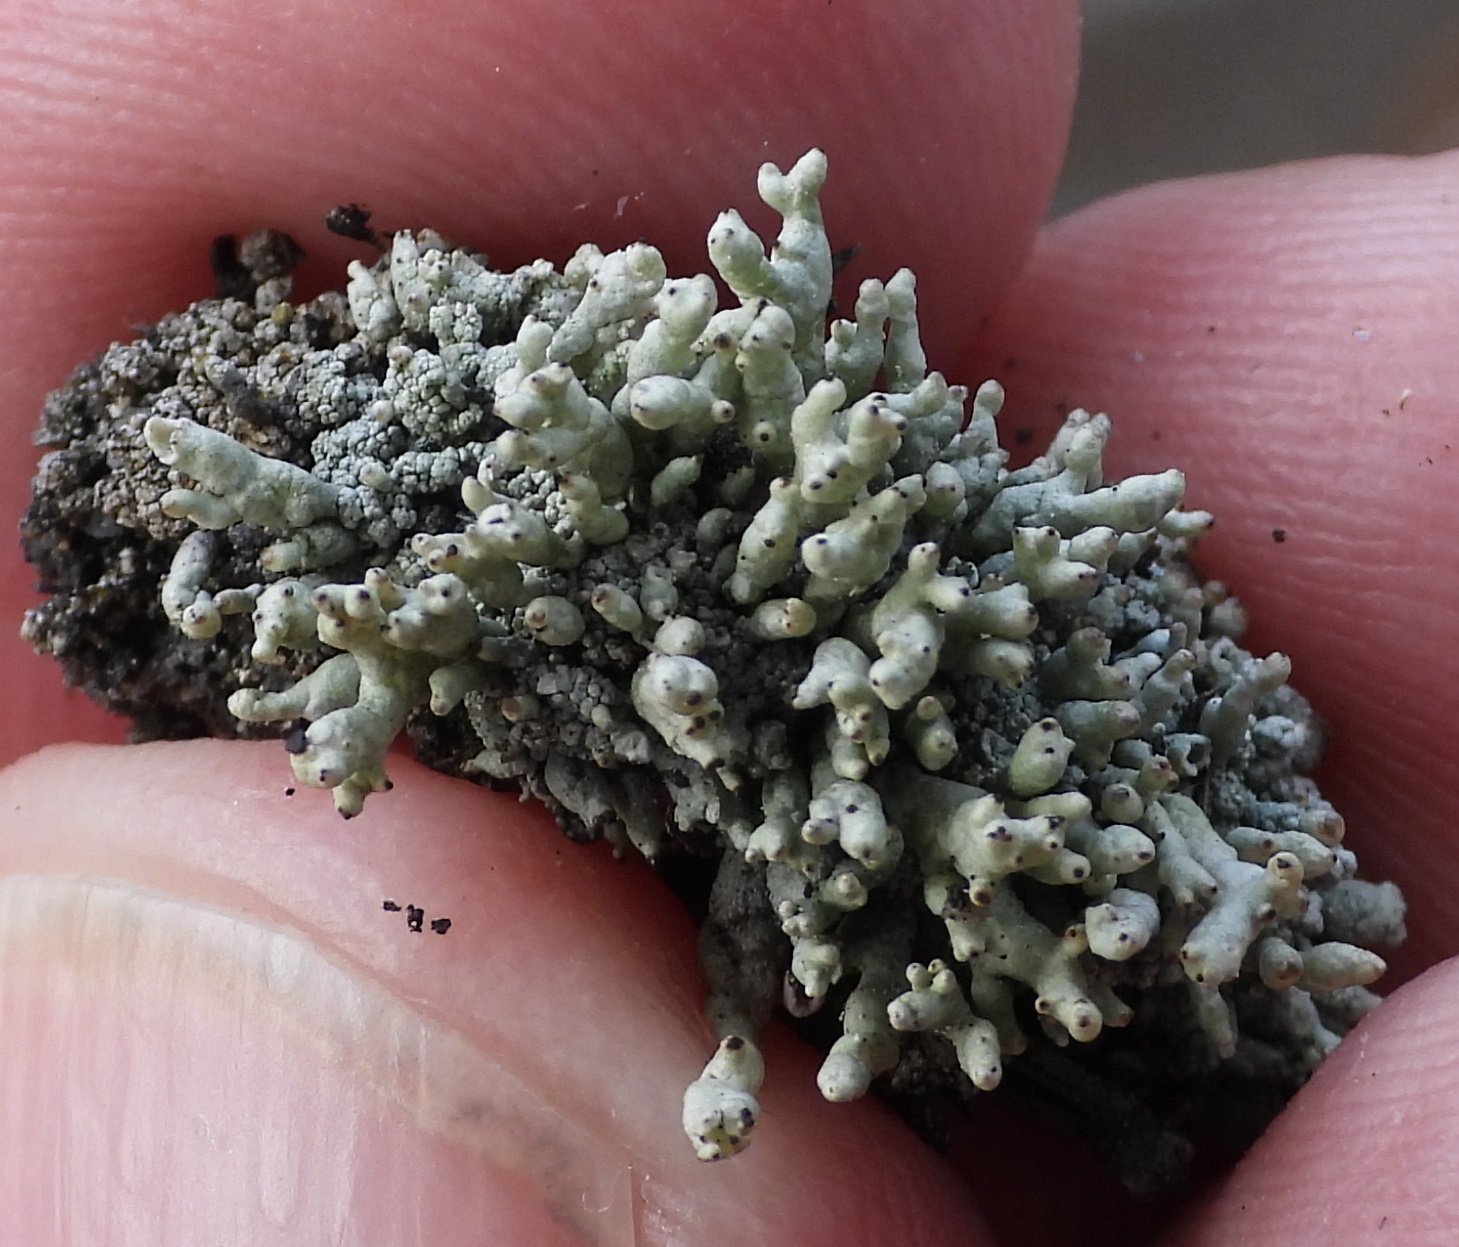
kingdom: Fungi
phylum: Ascomycota
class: Lecanoromycetes
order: Lecanorales
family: Cladoniaceae
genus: Pycnothelia
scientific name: Pycnothelia papillaria
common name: Nipple lichen
